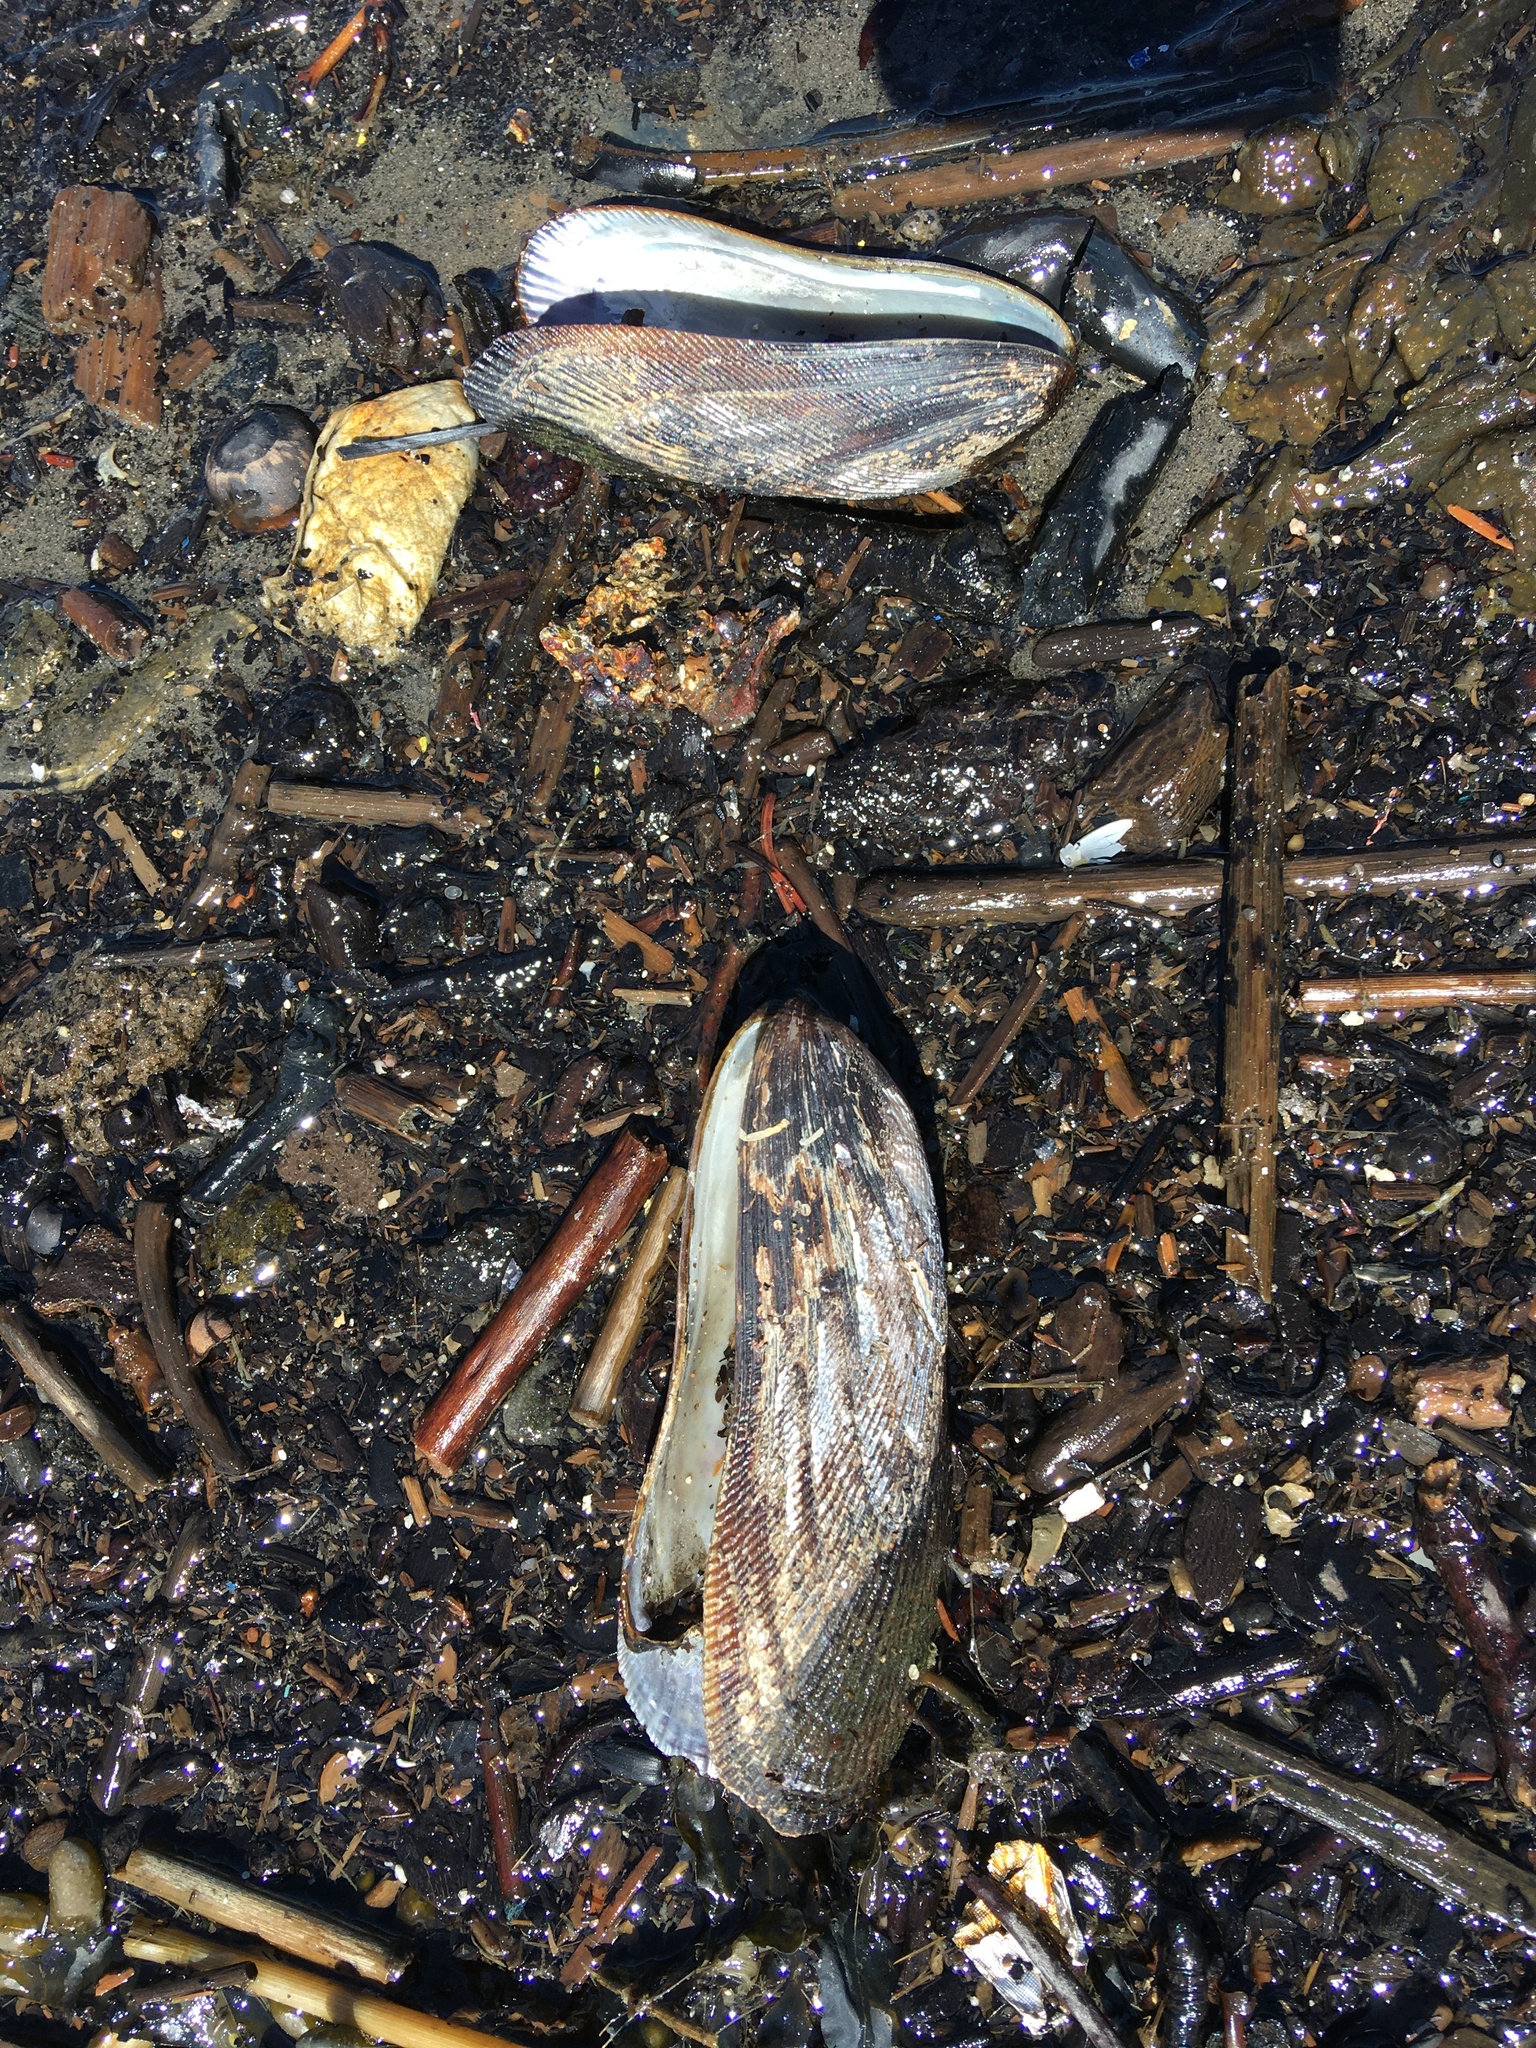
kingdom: Animalia
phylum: Mollusca
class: Bivalvia
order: Mytilida
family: Mytilidae
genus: Geukensia
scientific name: Geukensia demissa
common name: Ribbed mussel
